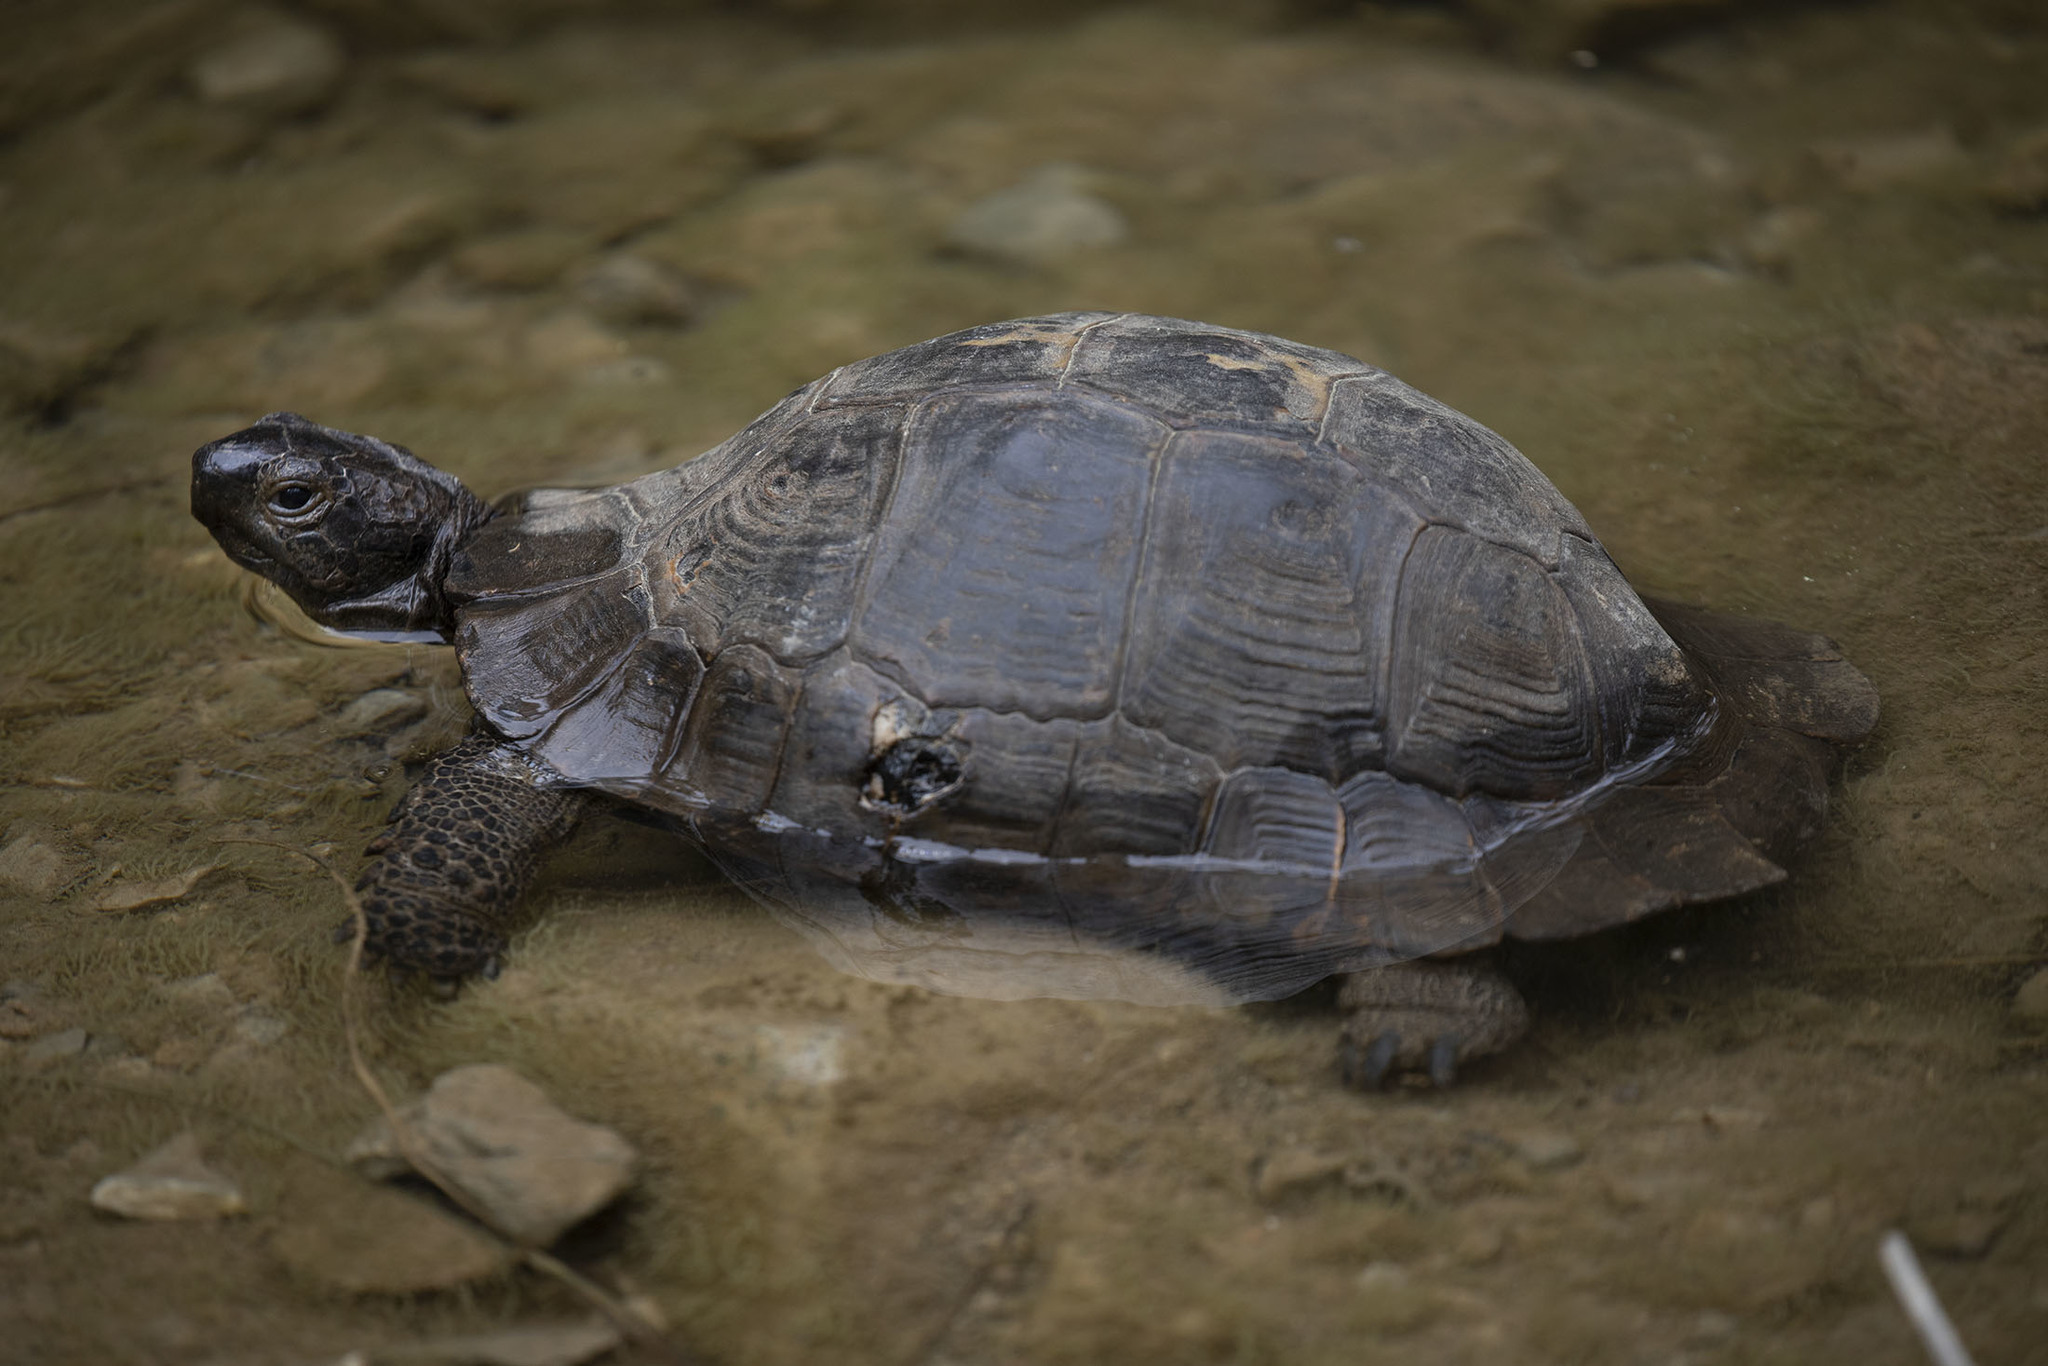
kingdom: Animalia
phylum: Chordata
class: Testudines
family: Testudinidae
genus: Testudo
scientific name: Testudo graeca
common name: Common tortoise
